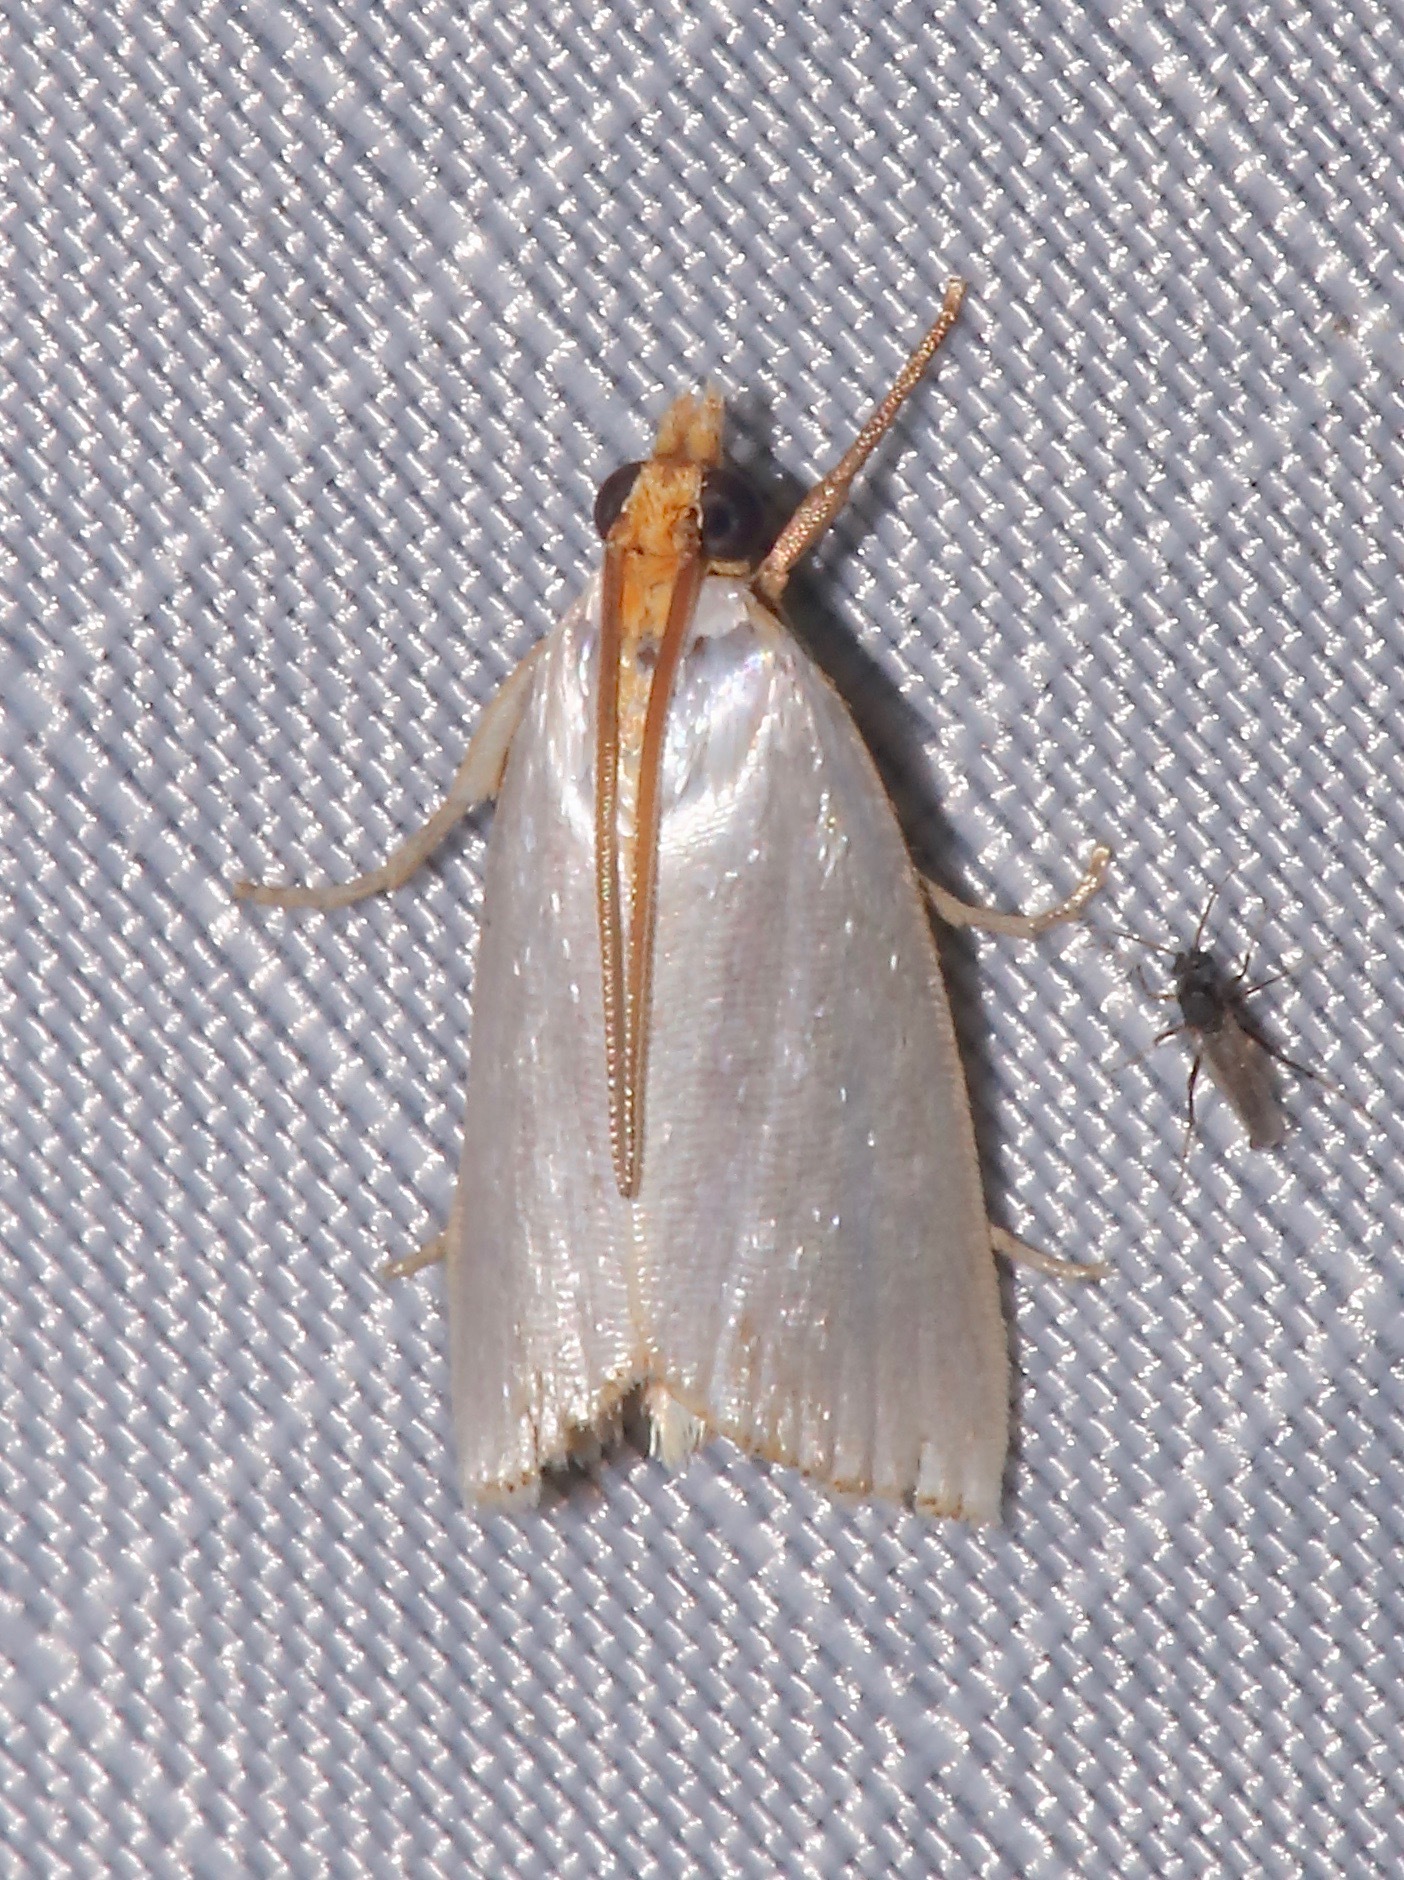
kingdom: Animalia
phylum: Arthropoda
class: Insecta
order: Lepidoptera
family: Crambidae
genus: Argyria
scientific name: Argyria nivalis
